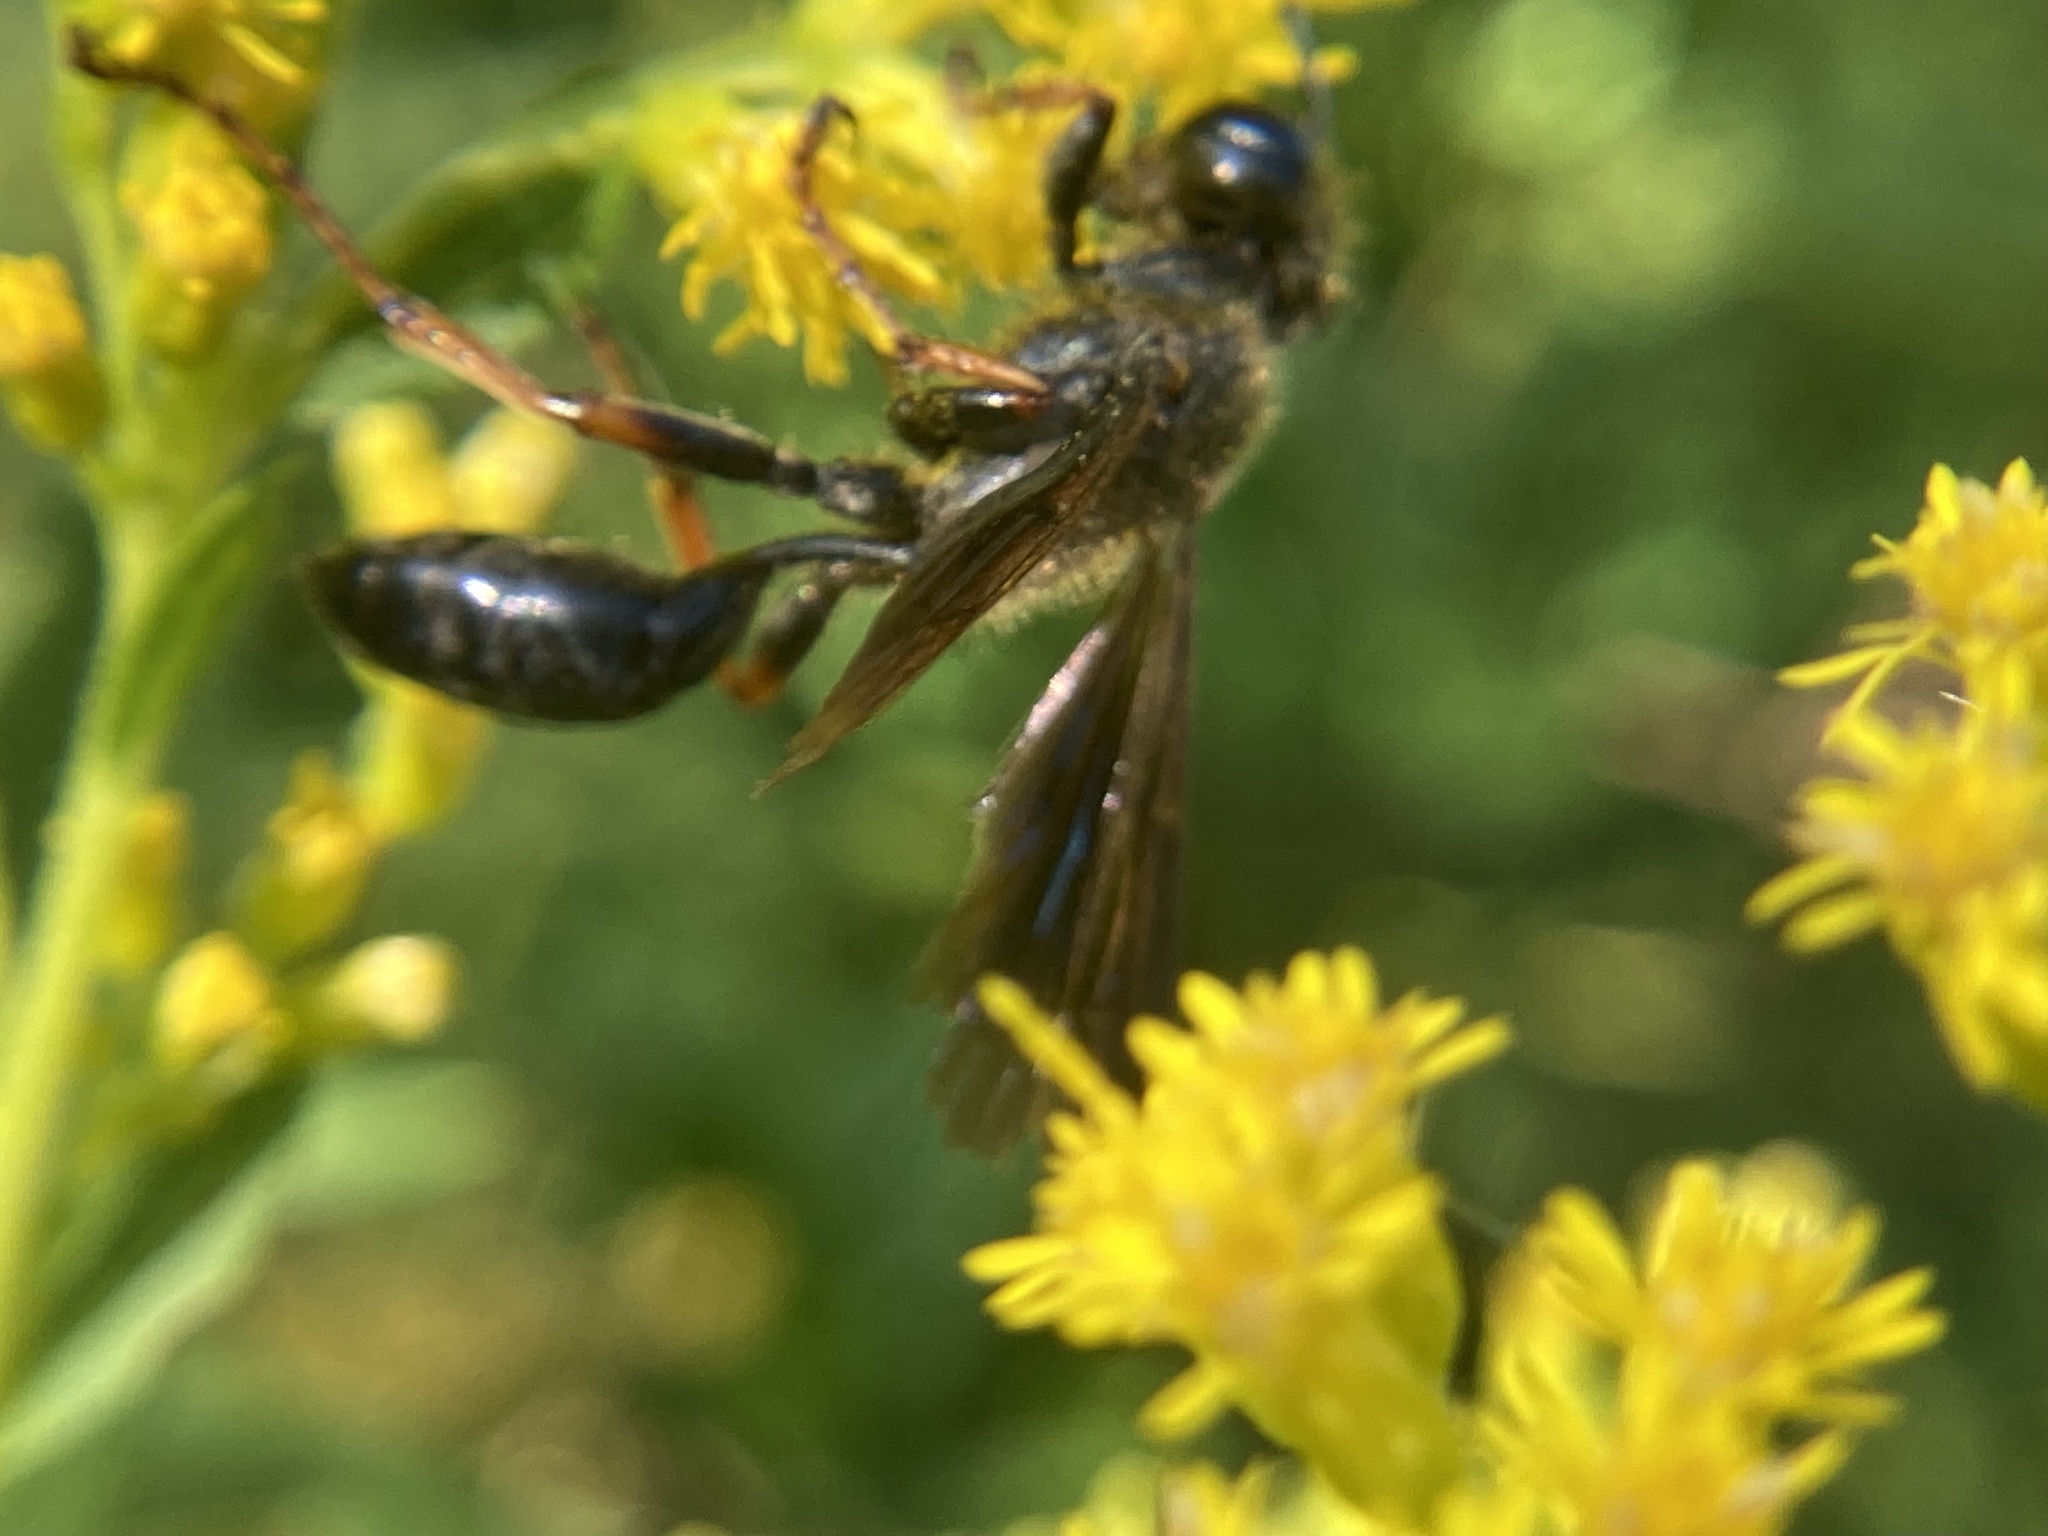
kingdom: Animalia
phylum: Arthropoda
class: Insecta
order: Hymenoptera
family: Sphecidae
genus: Isodontia
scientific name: Isodontia auripes
